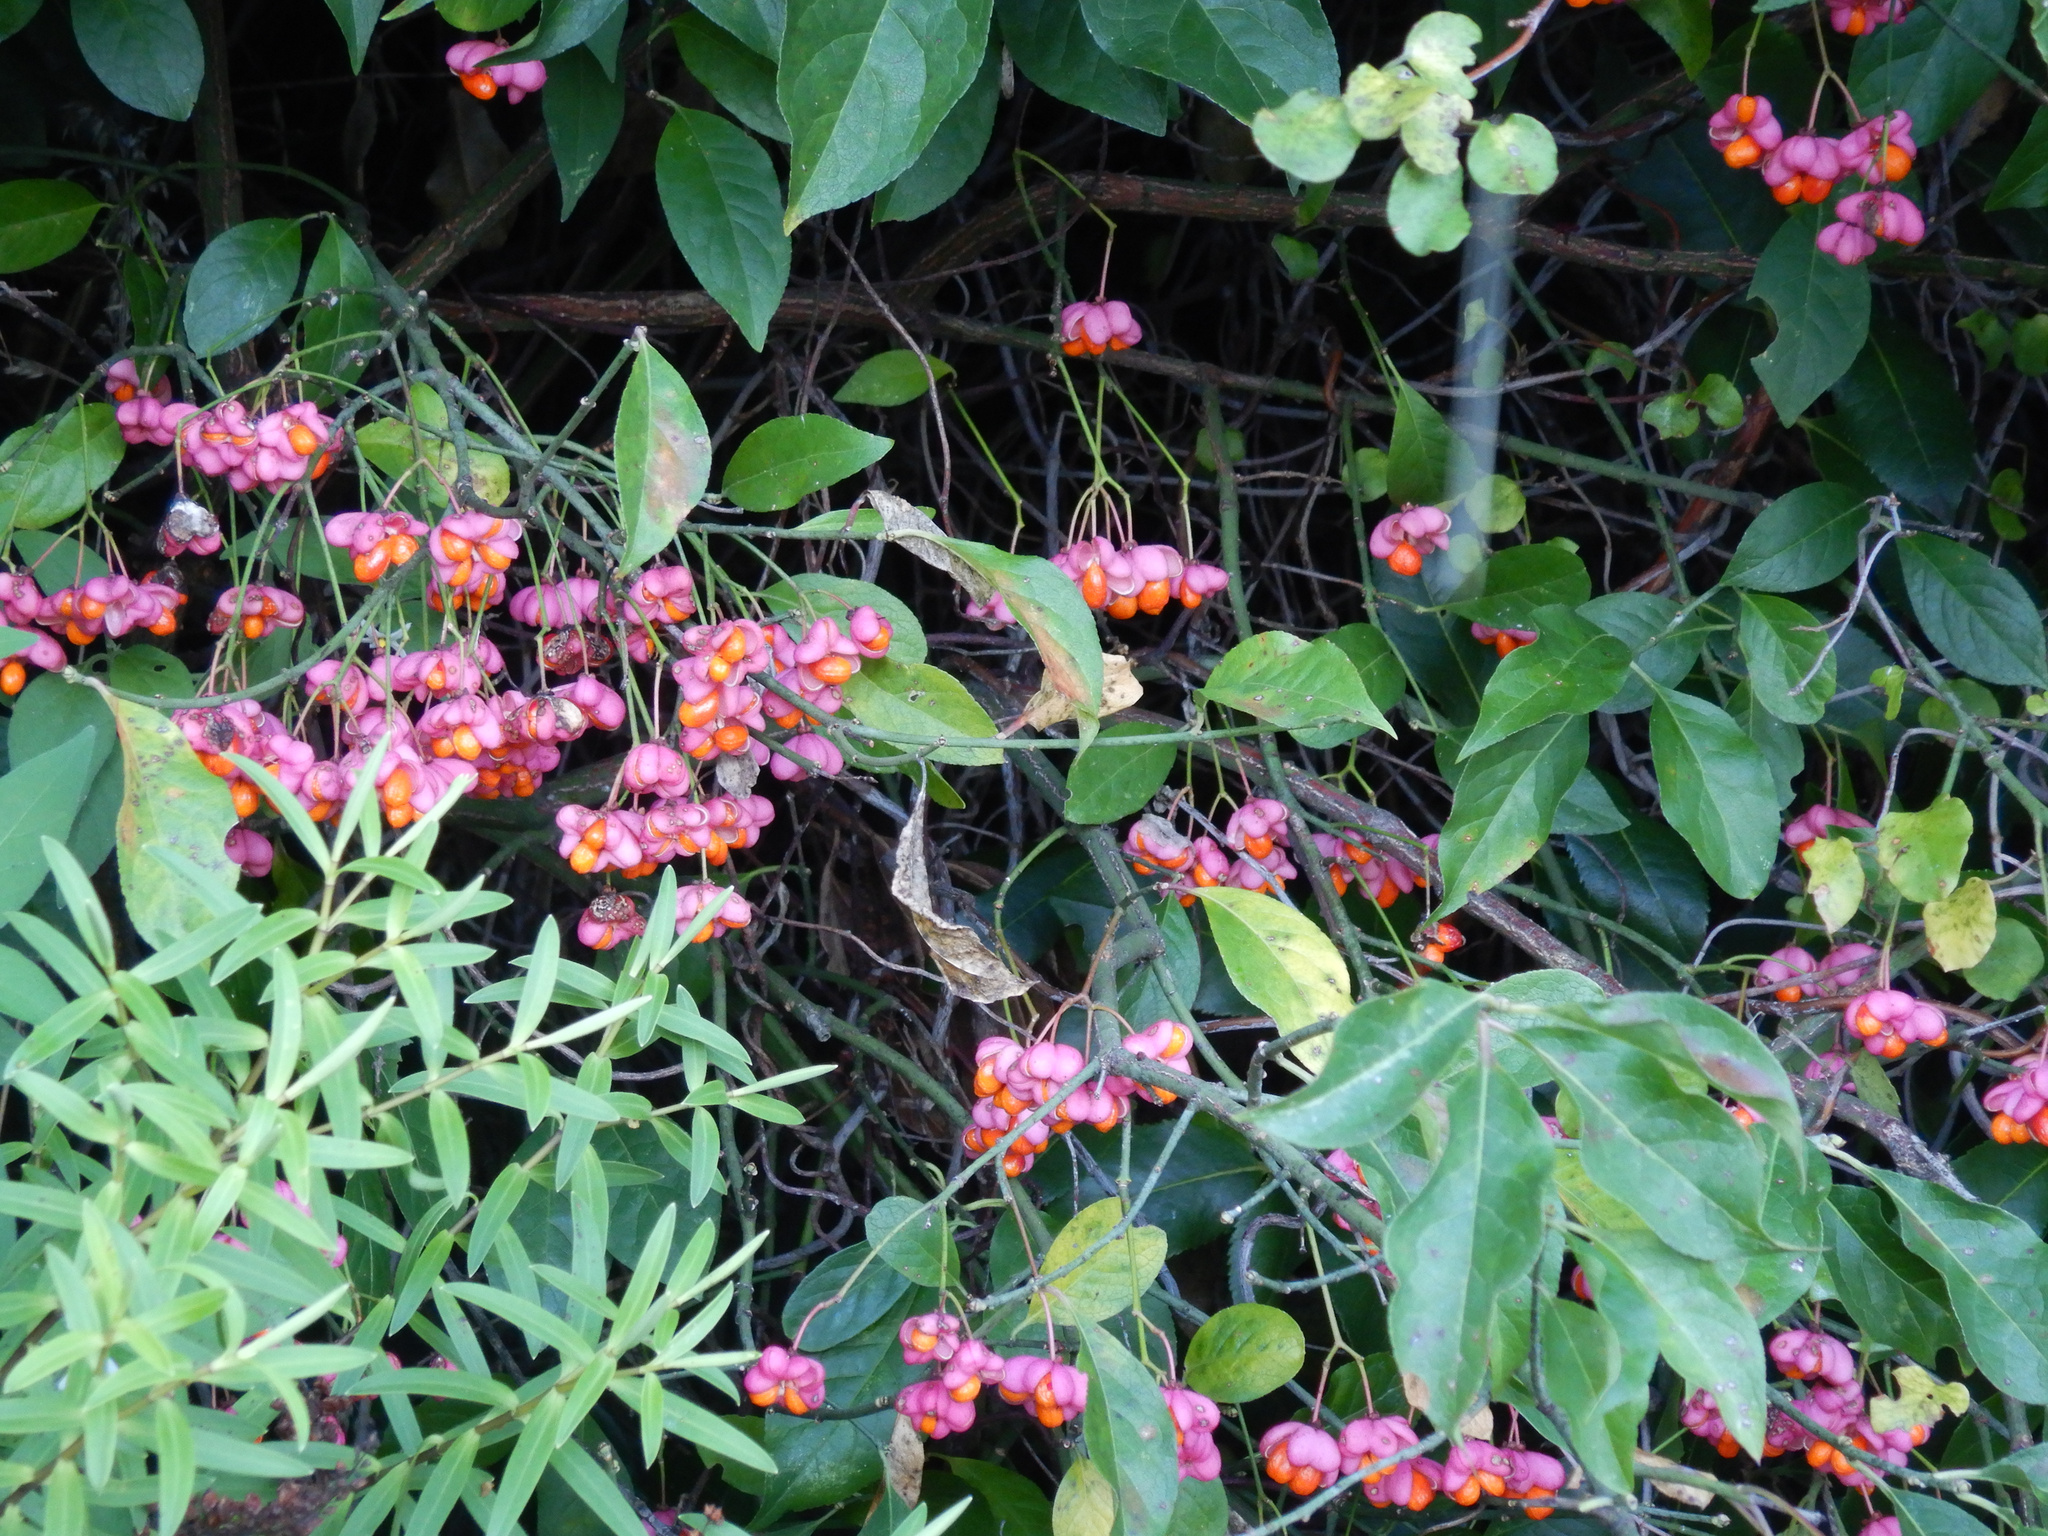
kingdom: Plantae
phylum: Tracheophyta
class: Magnoliopsida
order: Celastrales
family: Celastraceae
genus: Euonymus
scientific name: Euonymus europaeus
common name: Spindle
